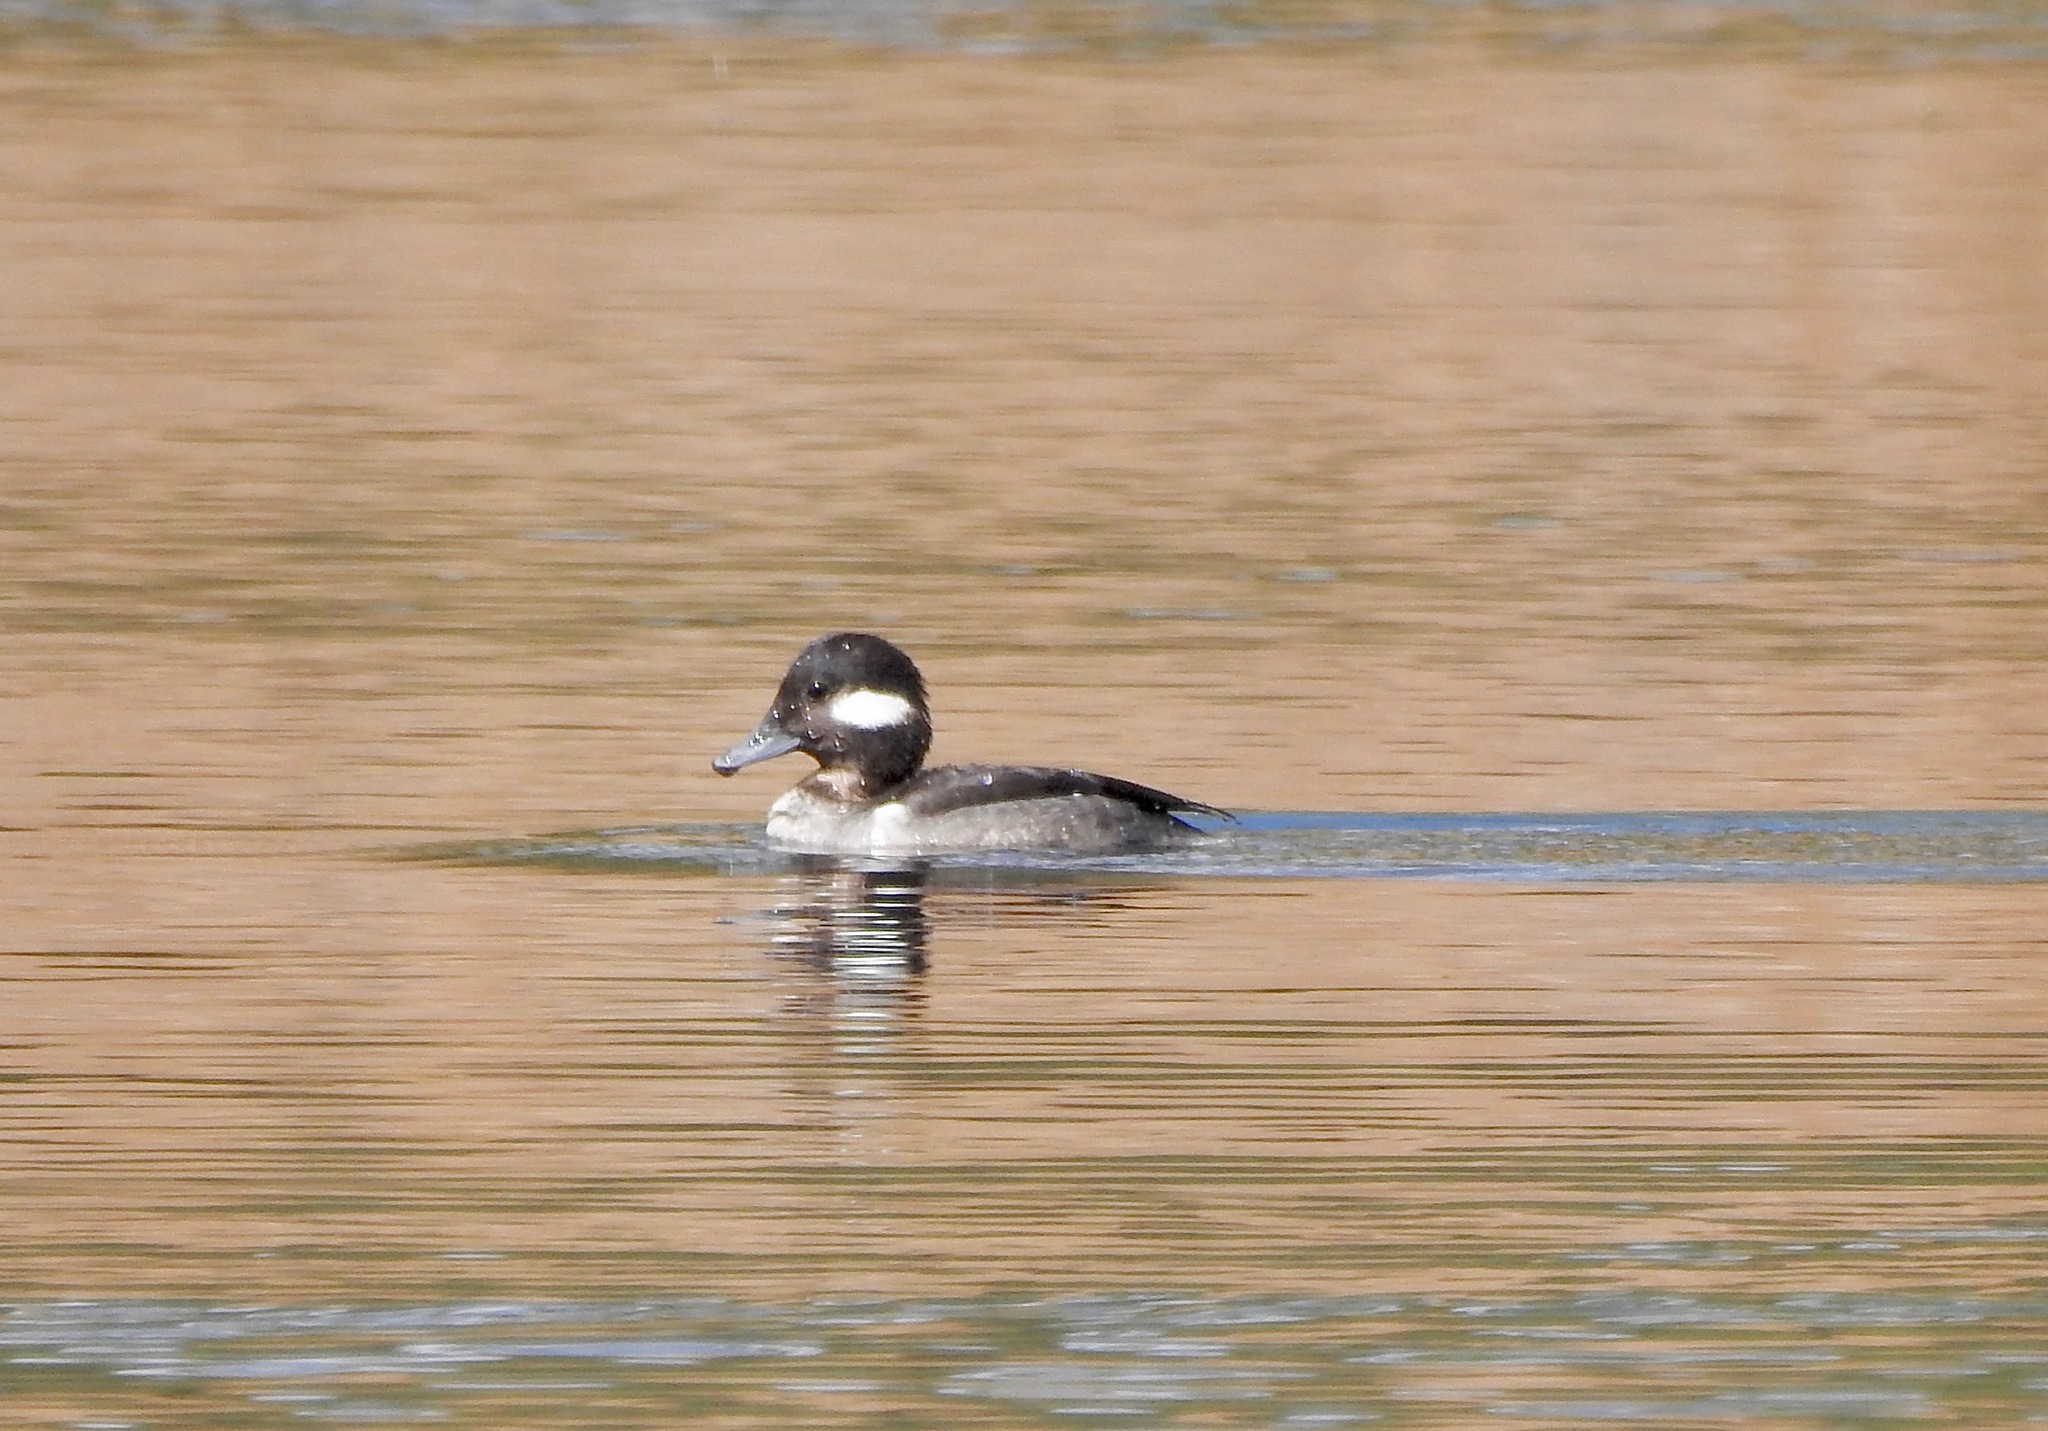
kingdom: Animalia
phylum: Chordata
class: Aves
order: Anseriformes
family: Anatidae
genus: Bucephala
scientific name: Bucephala albeola
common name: Bufflehead
